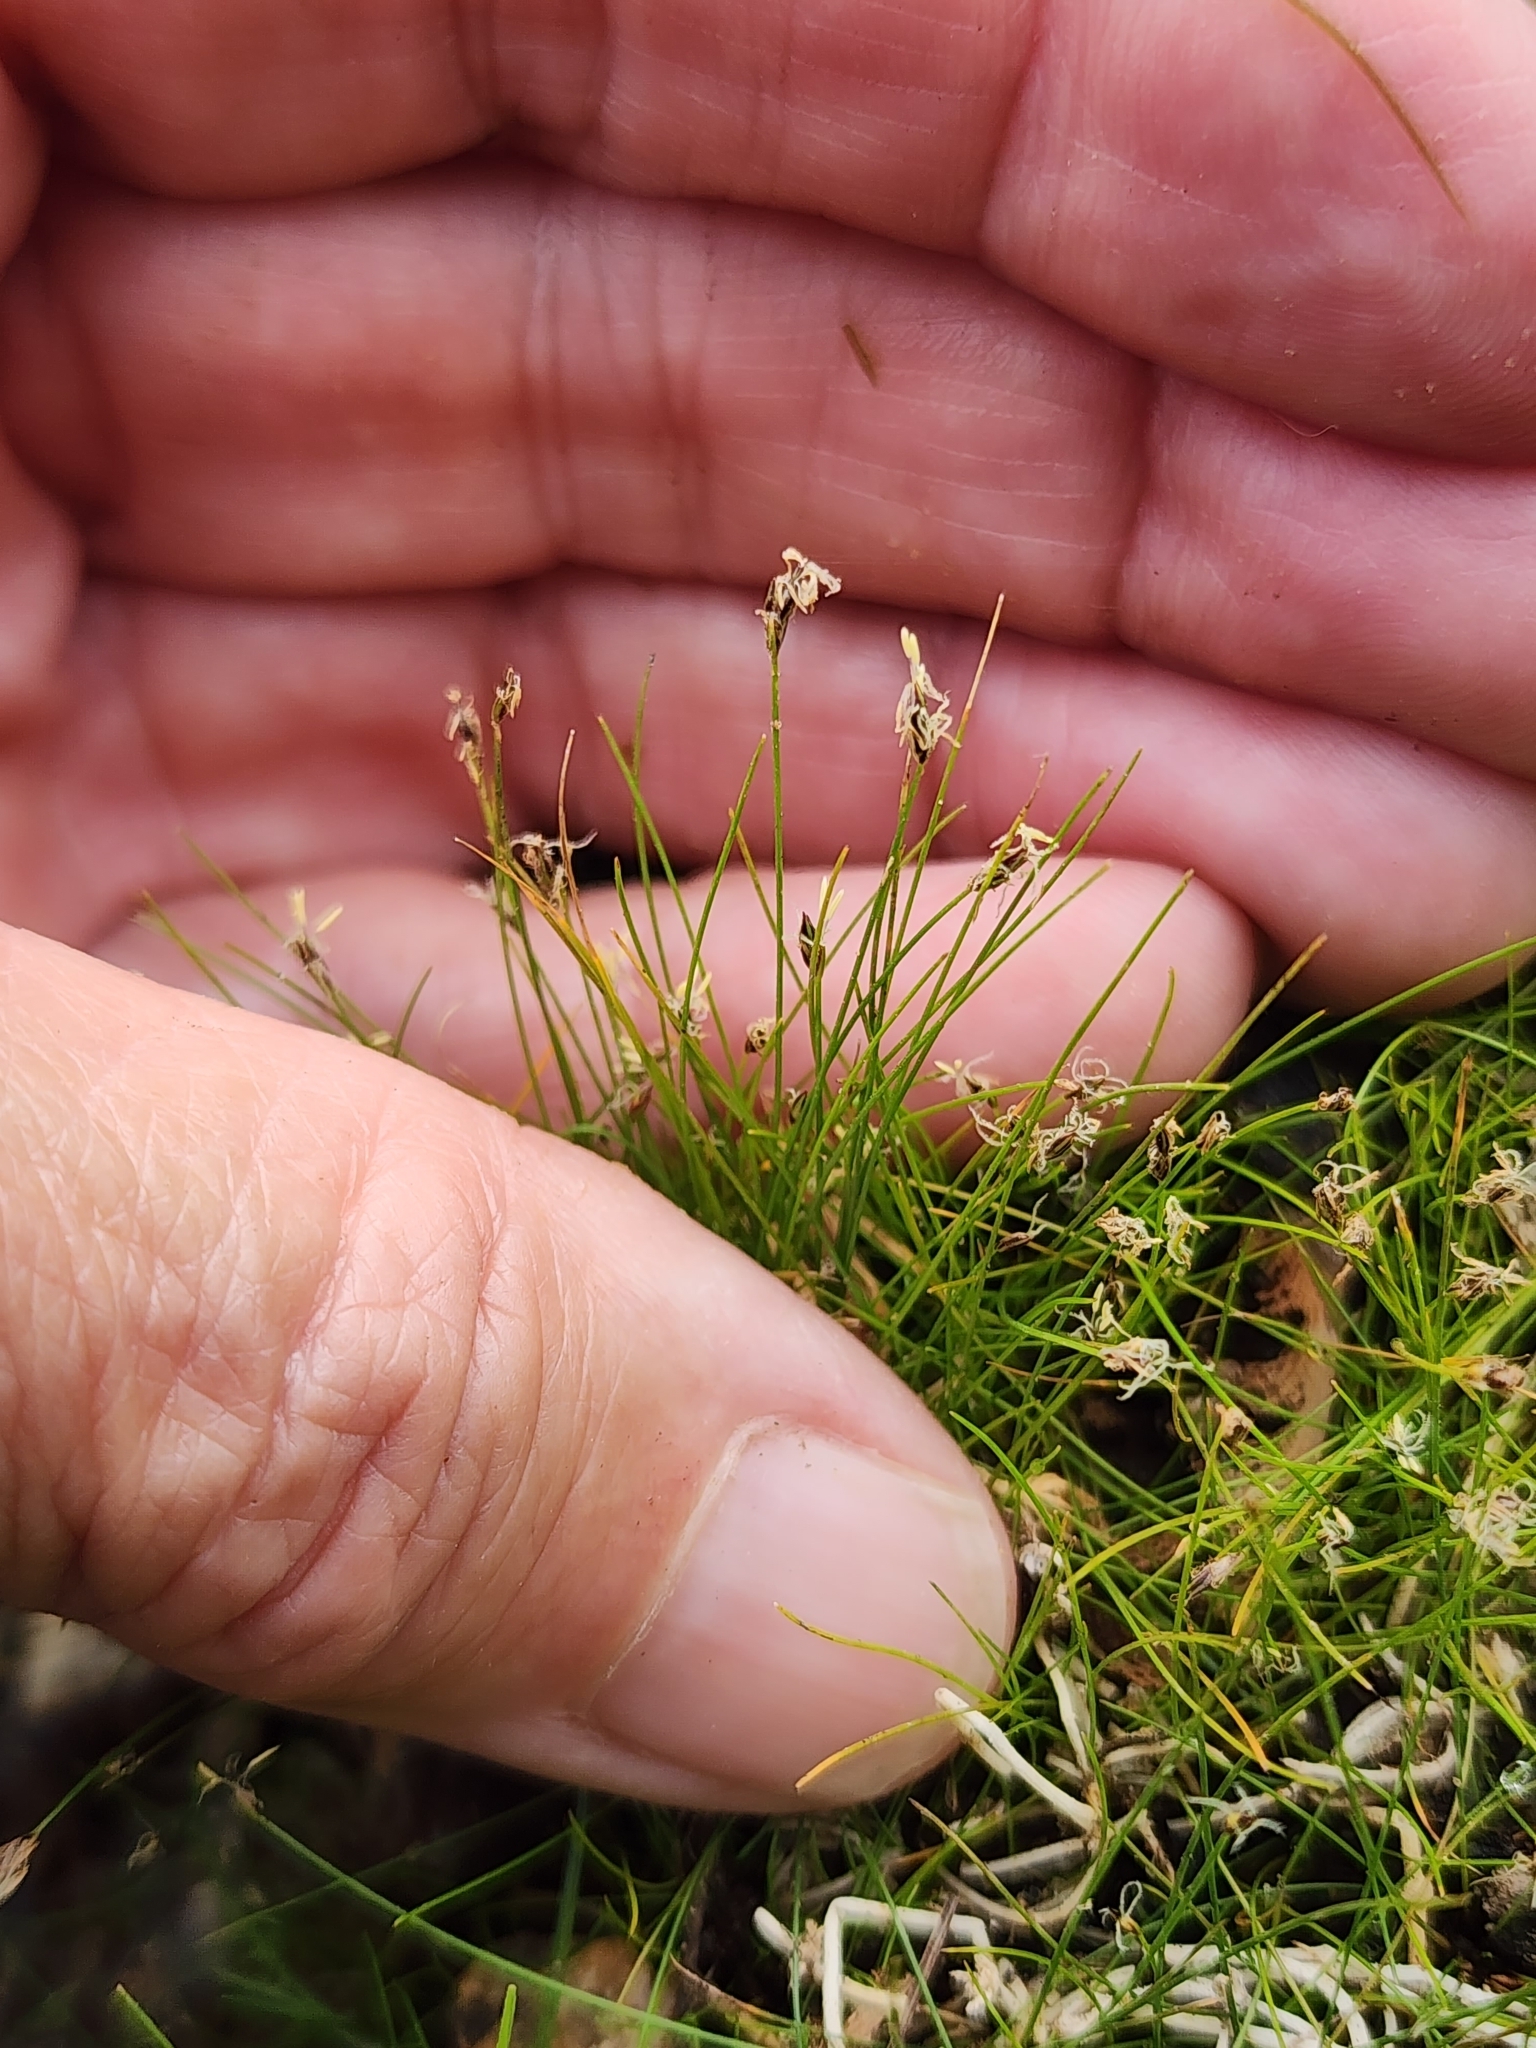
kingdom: Plantae
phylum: Tracheophyta
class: Liliopsida
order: Poales
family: Cyperaceae
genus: Eleocharis
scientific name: Eleocharis acicularis
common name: Needle spike-rush
